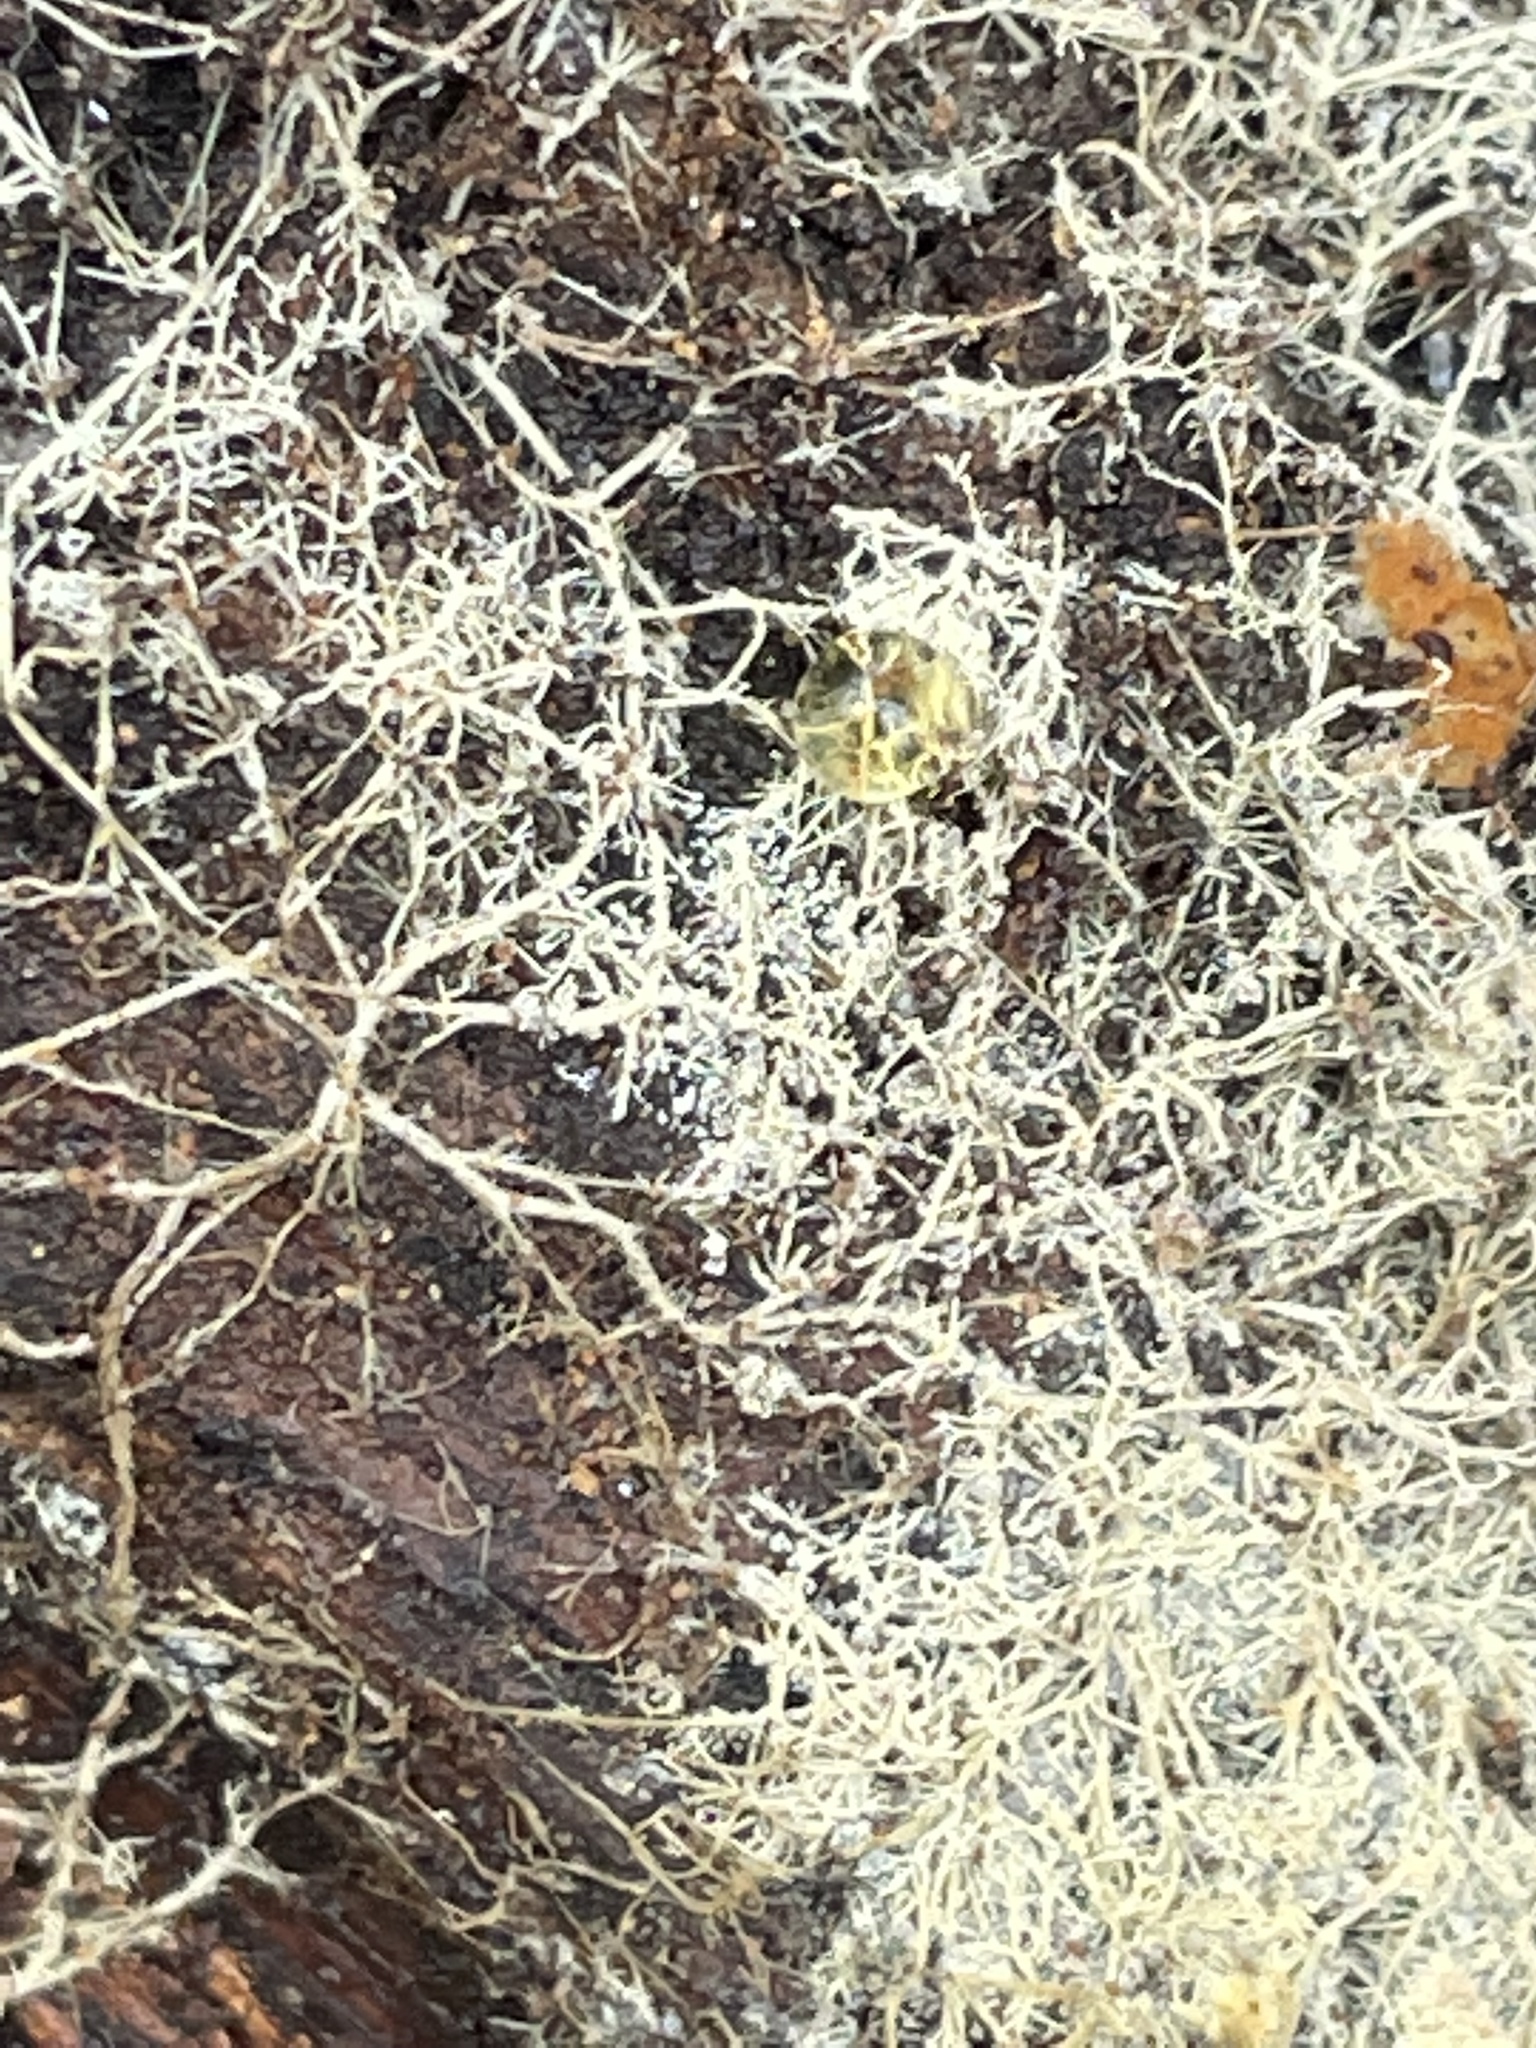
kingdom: Fungi
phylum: Basidiomycota
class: Agaricomycetes
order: Polyporales
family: Meruliaceae
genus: Hydnophlebia
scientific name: Hydnophlebia chrysorhiza
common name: Spreading yellow tooth
